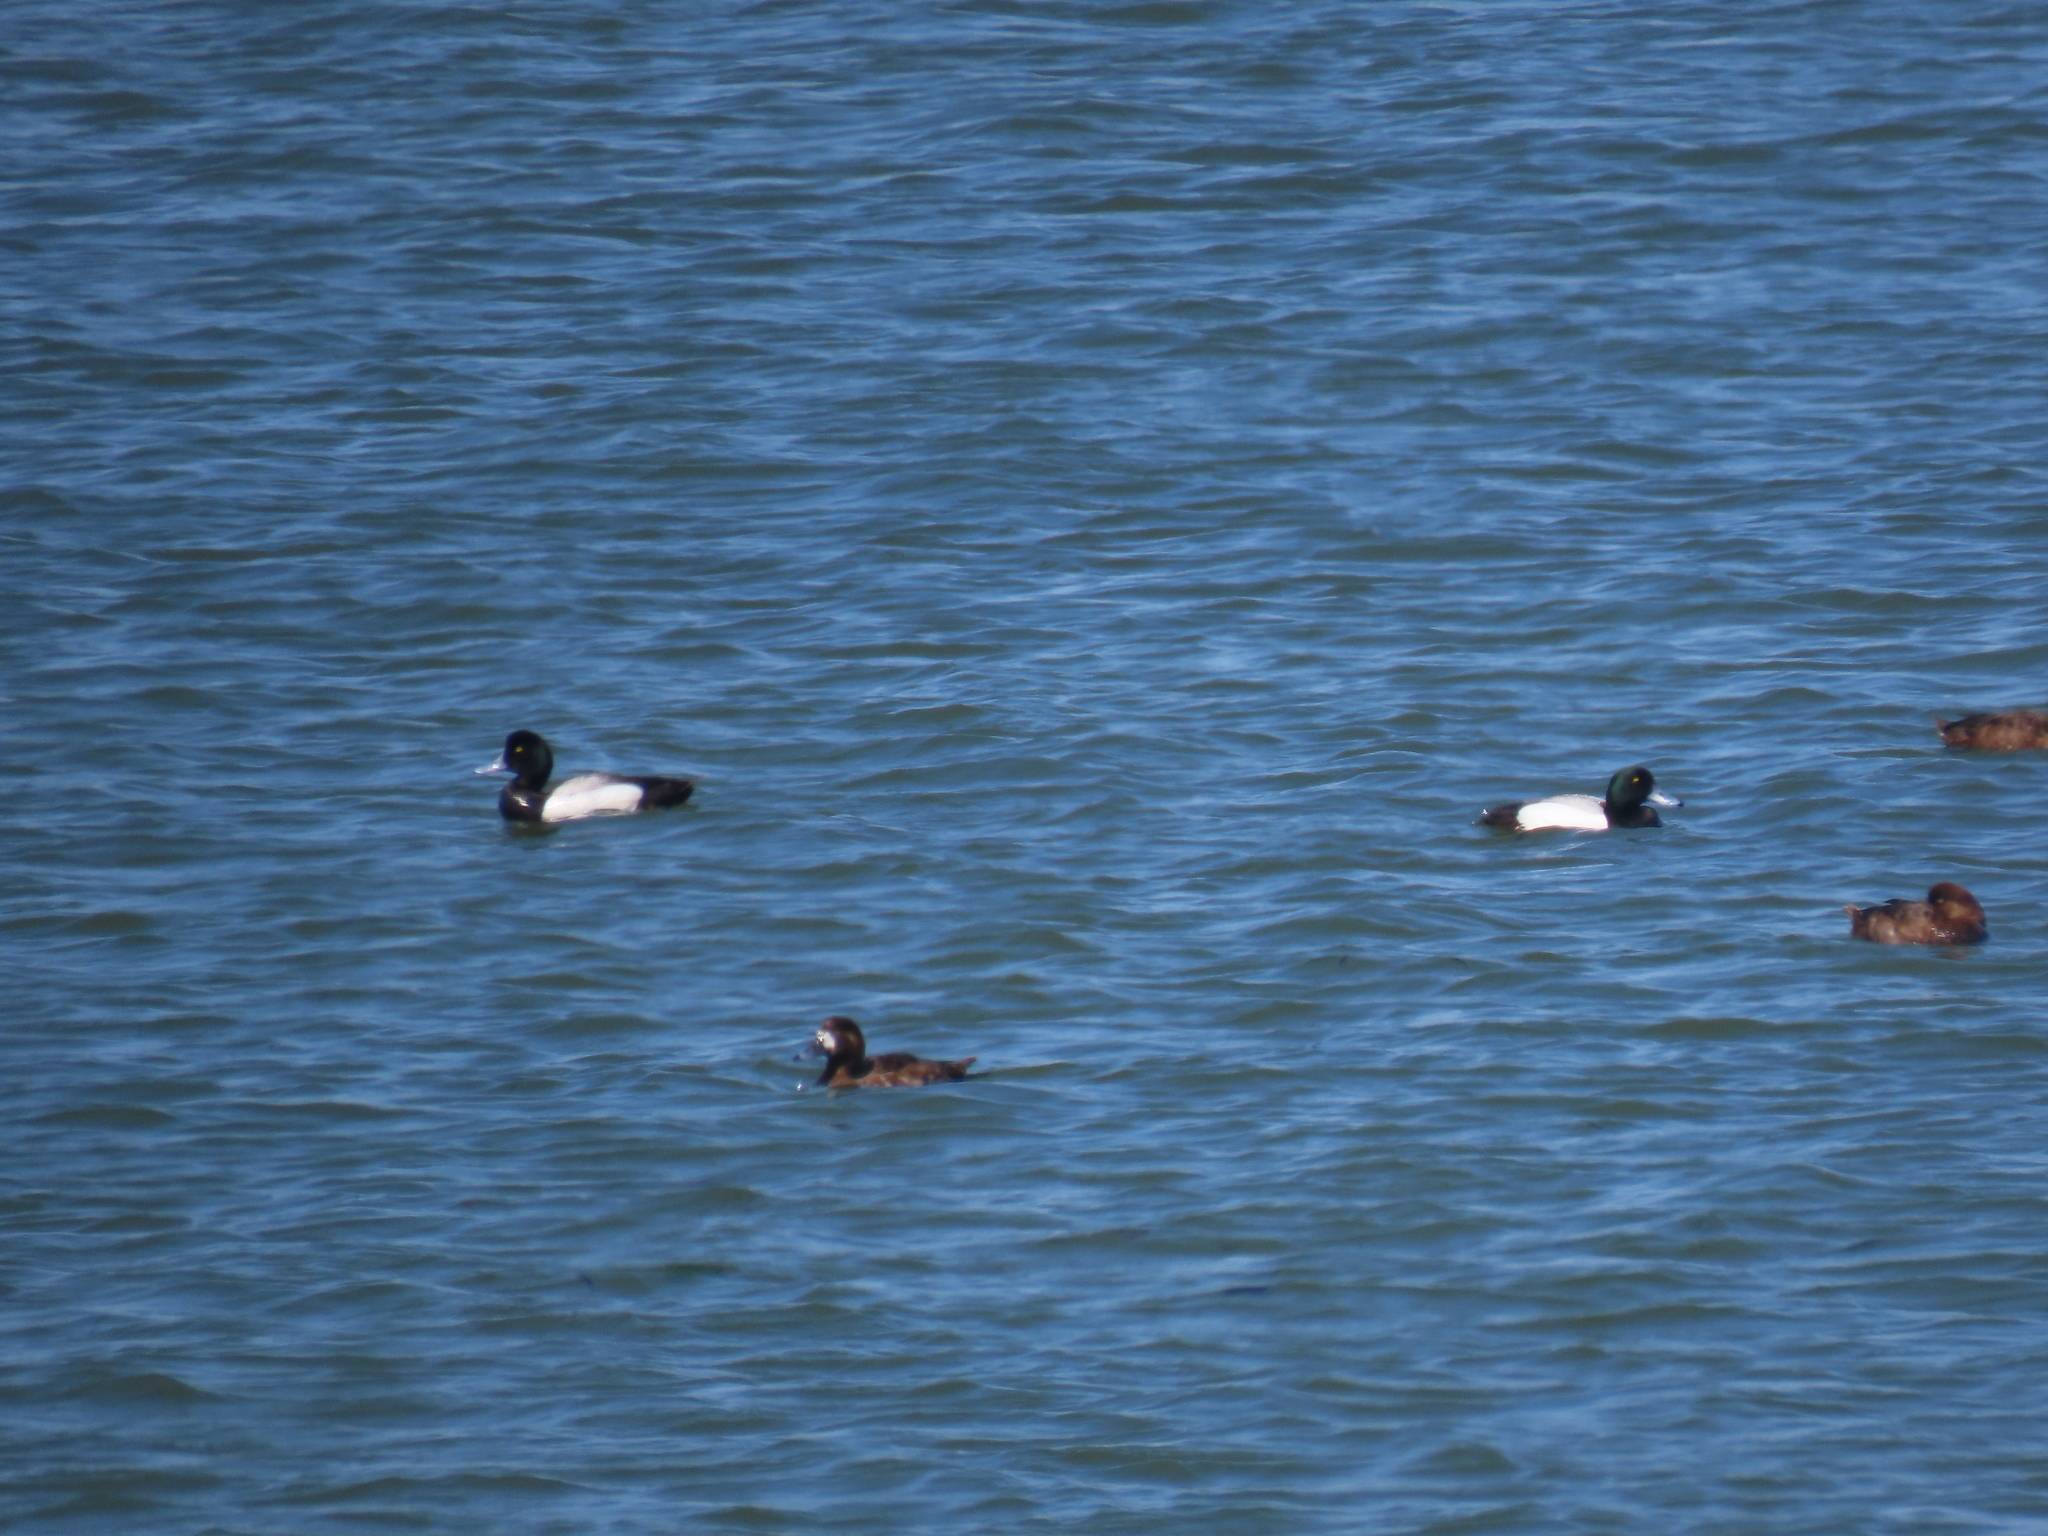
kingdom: Animalia
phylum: Chordata
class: Aves
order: Anseriformes
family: Anatidae
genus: Aythya
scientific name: Aythya marila
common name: Greater scaup
